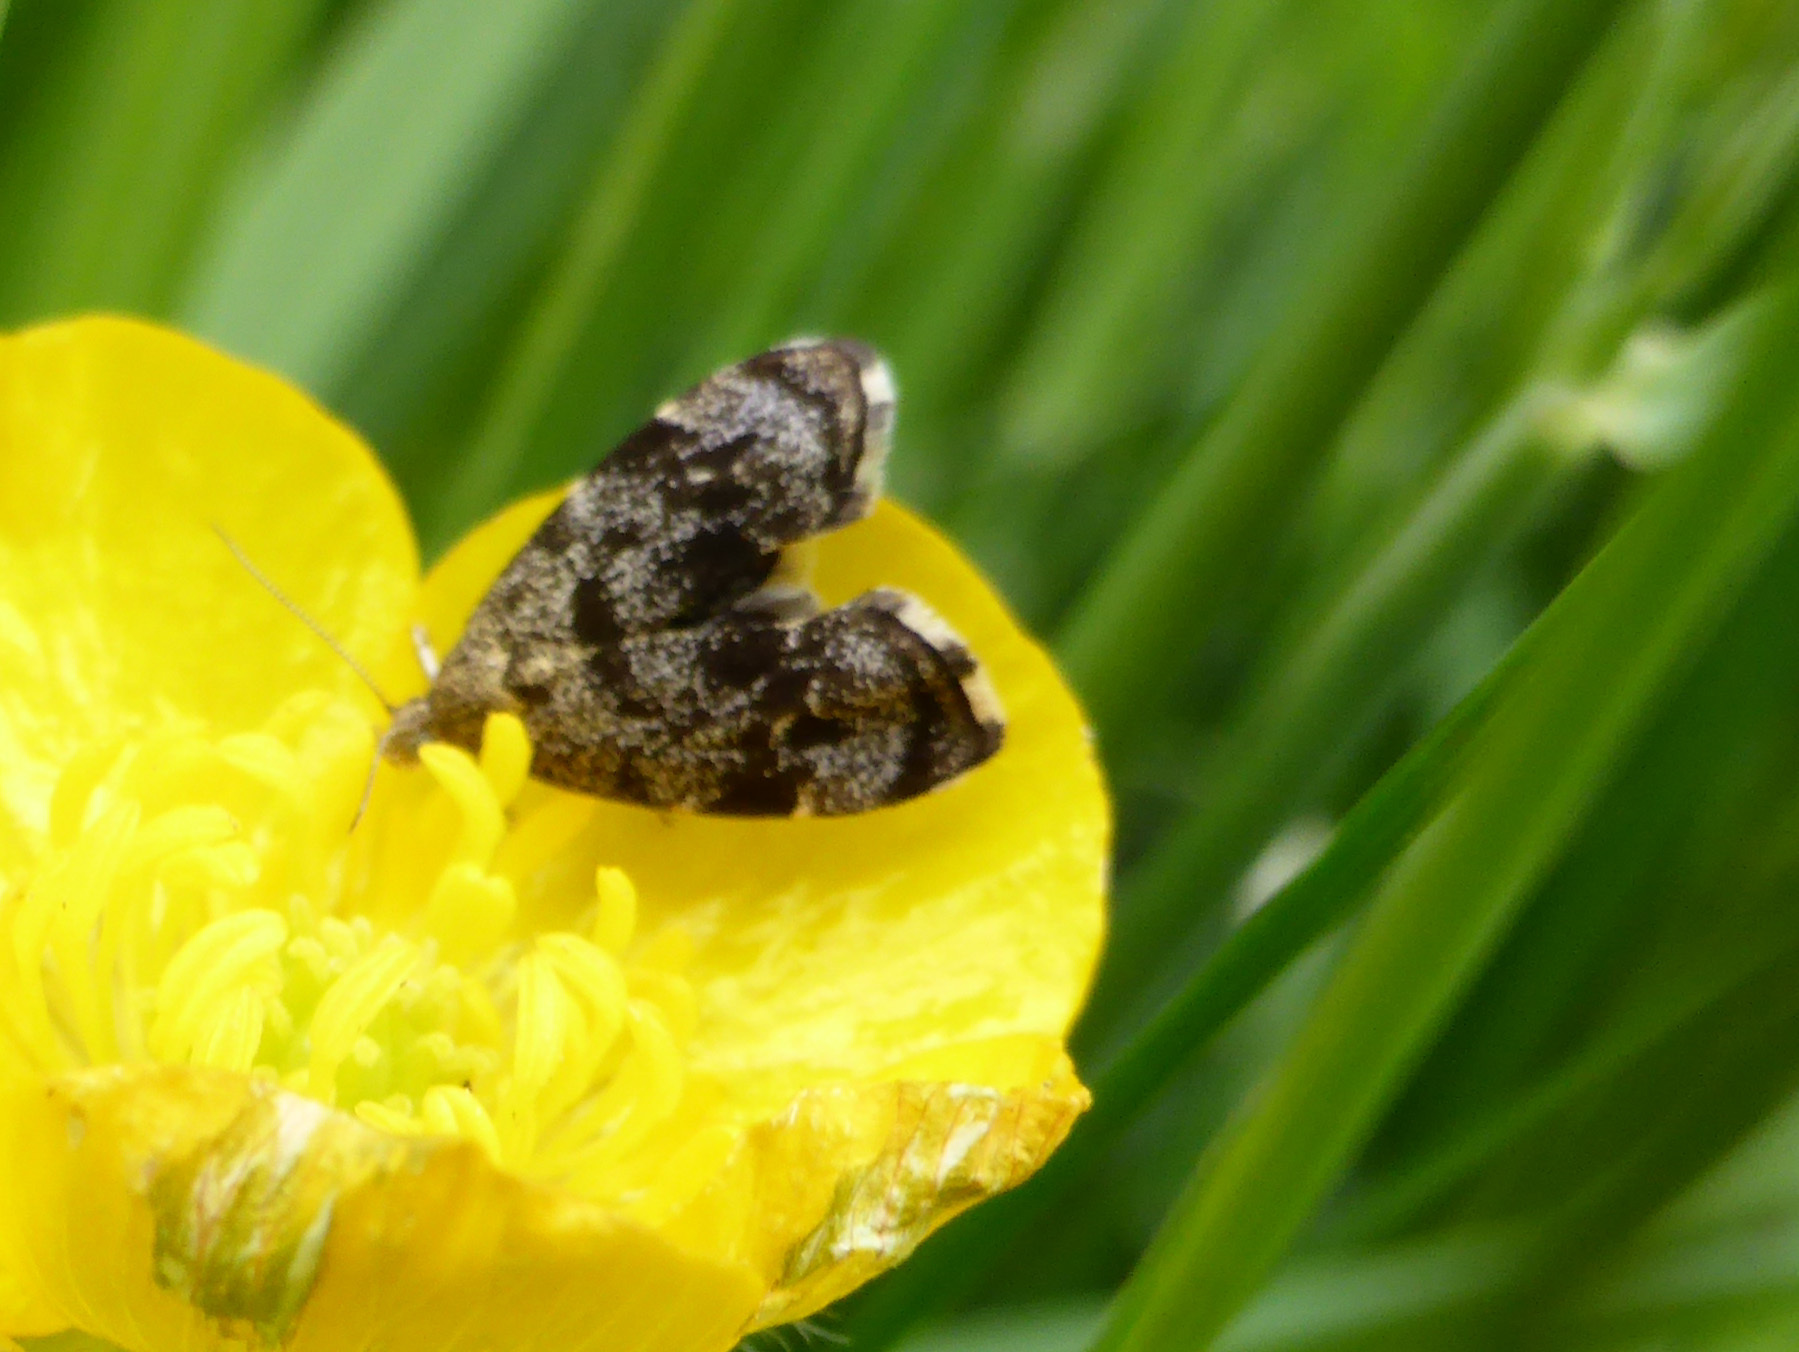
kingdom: Animalia
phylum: Arthropoda
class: Insecta
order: Lepidoptera
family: Choreutidae
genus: Anthophila
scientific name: Anthophila fabriciana
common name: Nettle-tap
